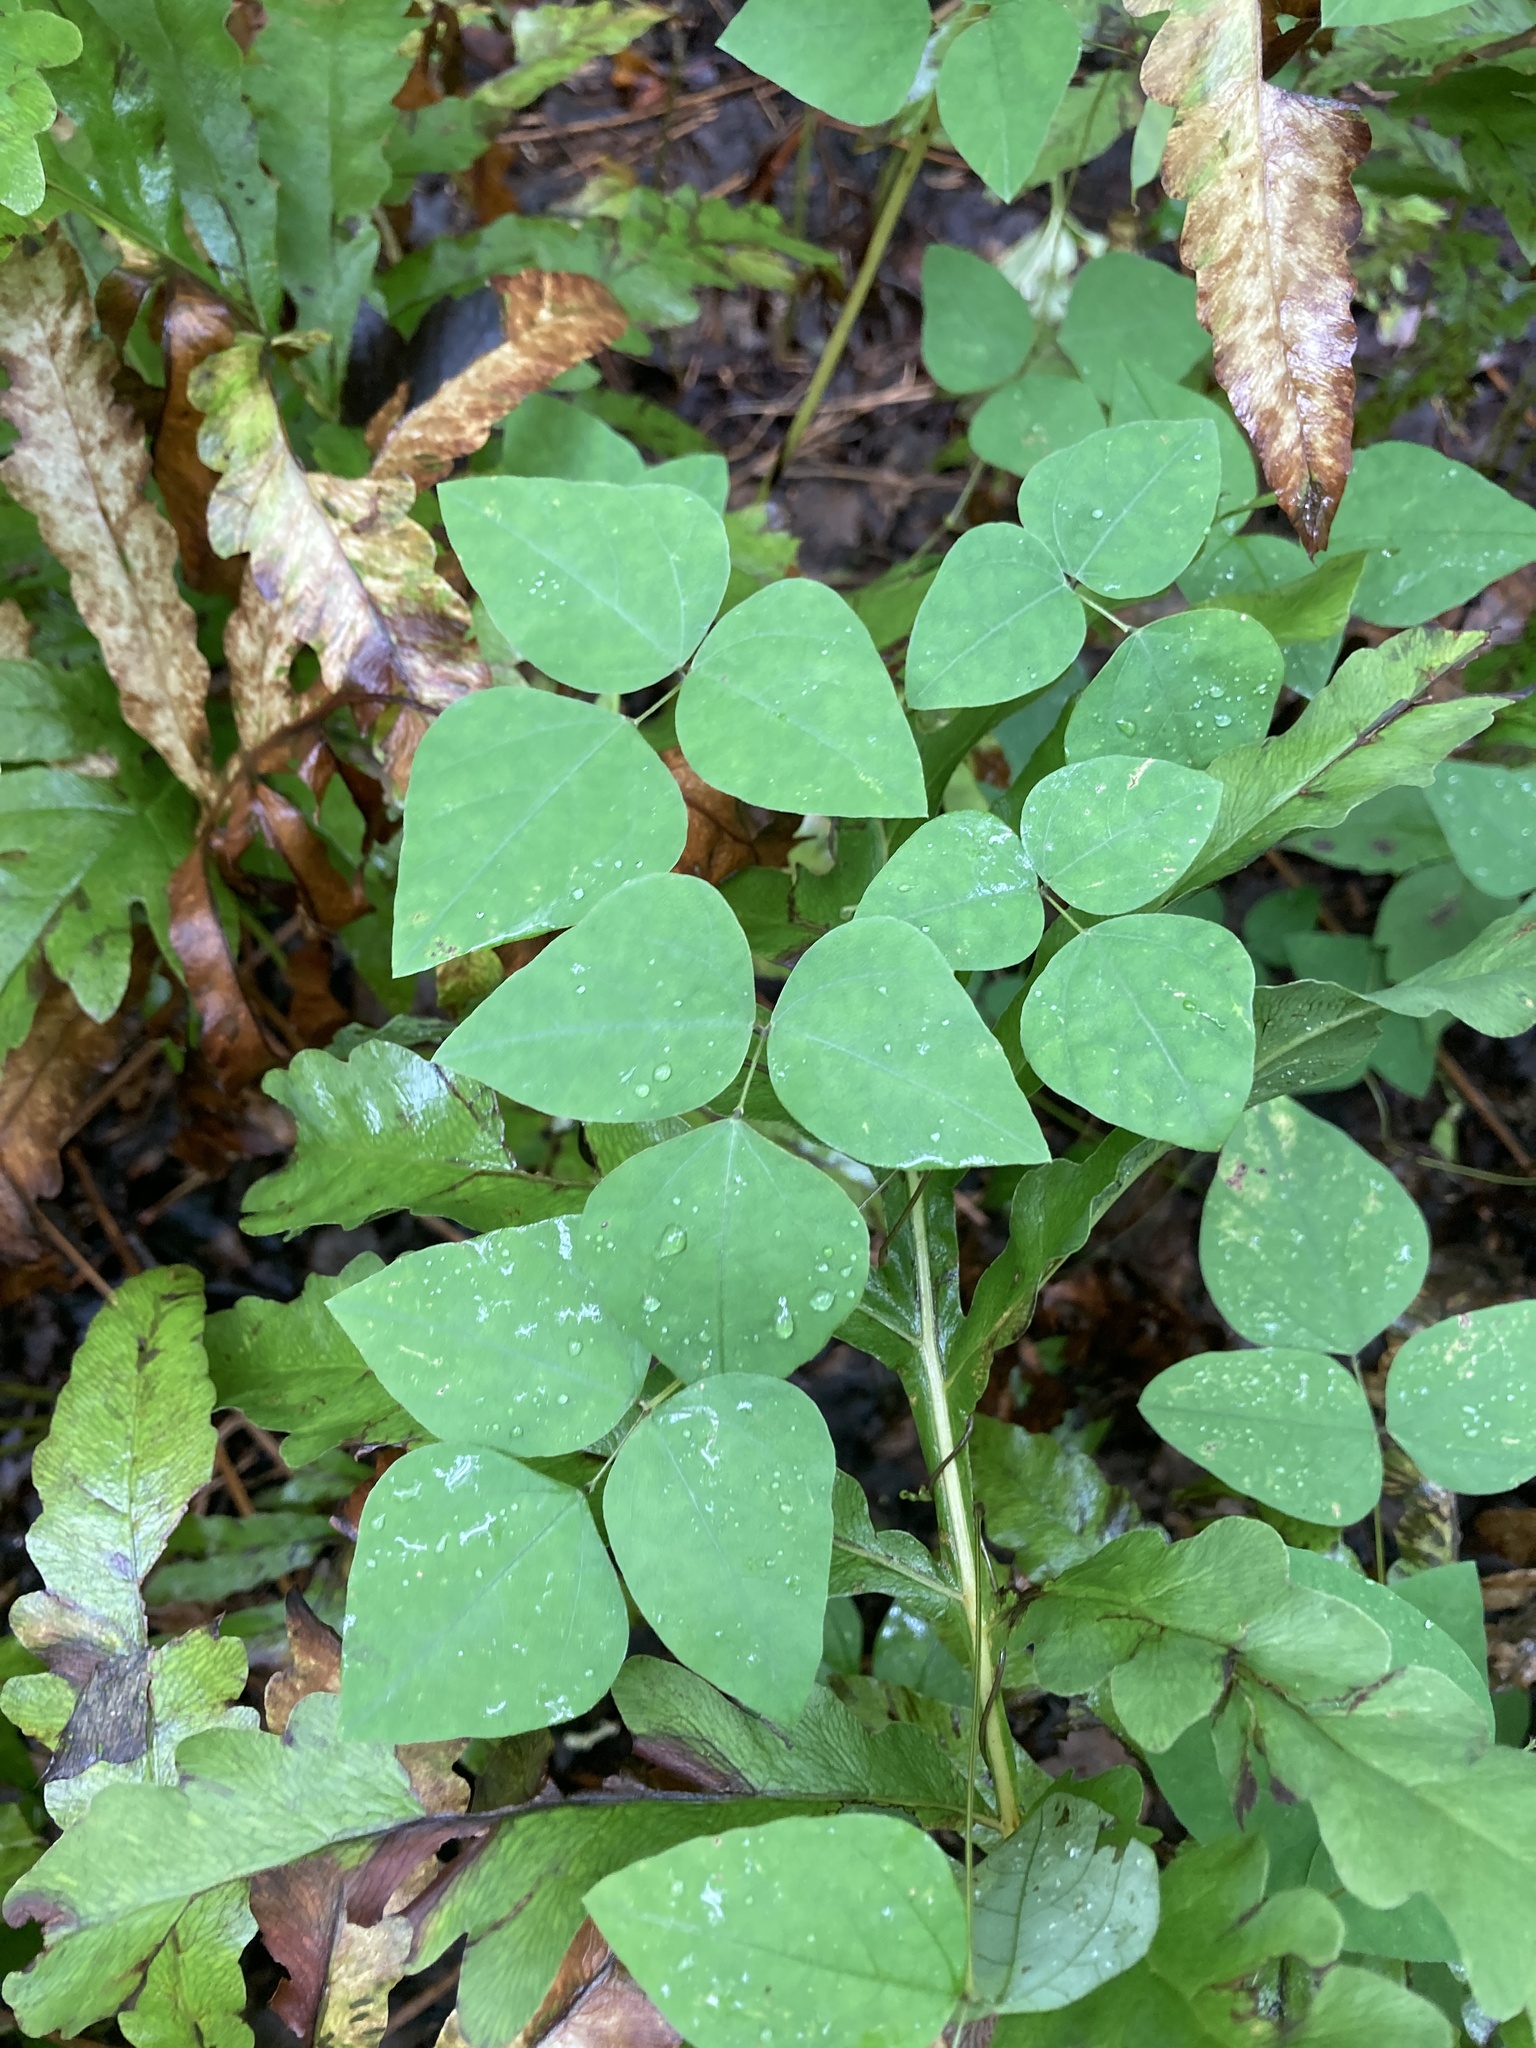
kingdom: Plantae
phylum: Tracheophyta
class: Magnoliopsida
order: Fabales
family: Fabaceae
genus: Amphicarpaea
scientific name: Amphicarpaea bracteata
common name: American hog peanut
